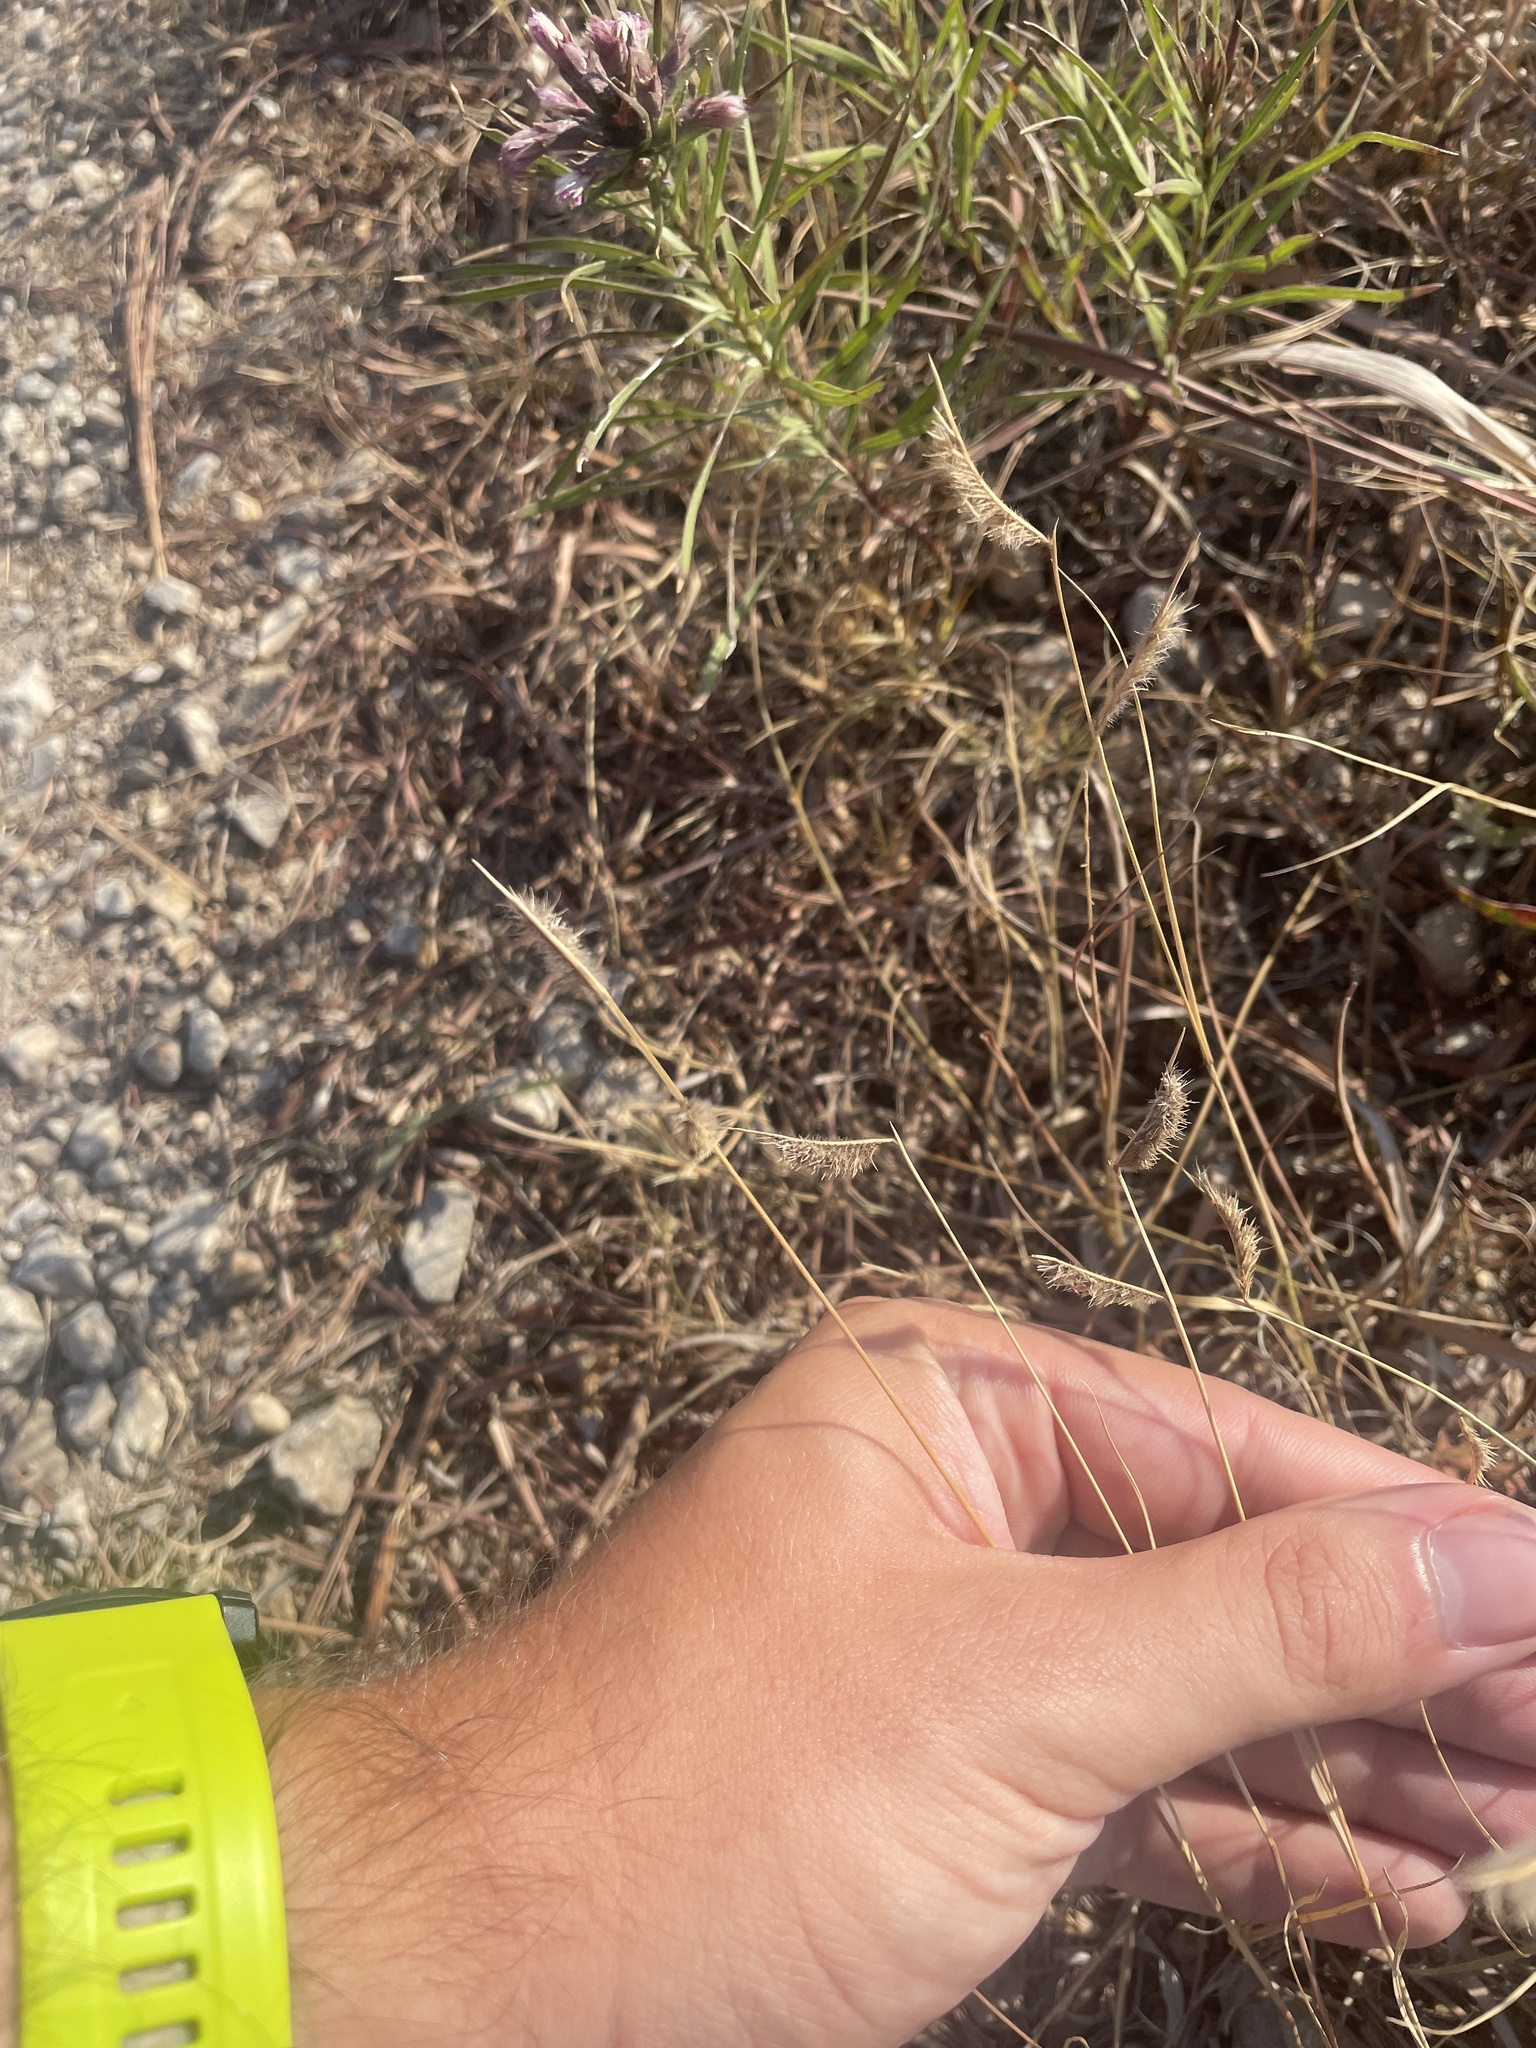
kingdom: Plantae
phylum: Tracheophyta
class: Liliopsida
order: Poales
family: Poaceae
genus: Bouteloua
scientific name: Bouteloua hirsuta
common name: Hairy grama
